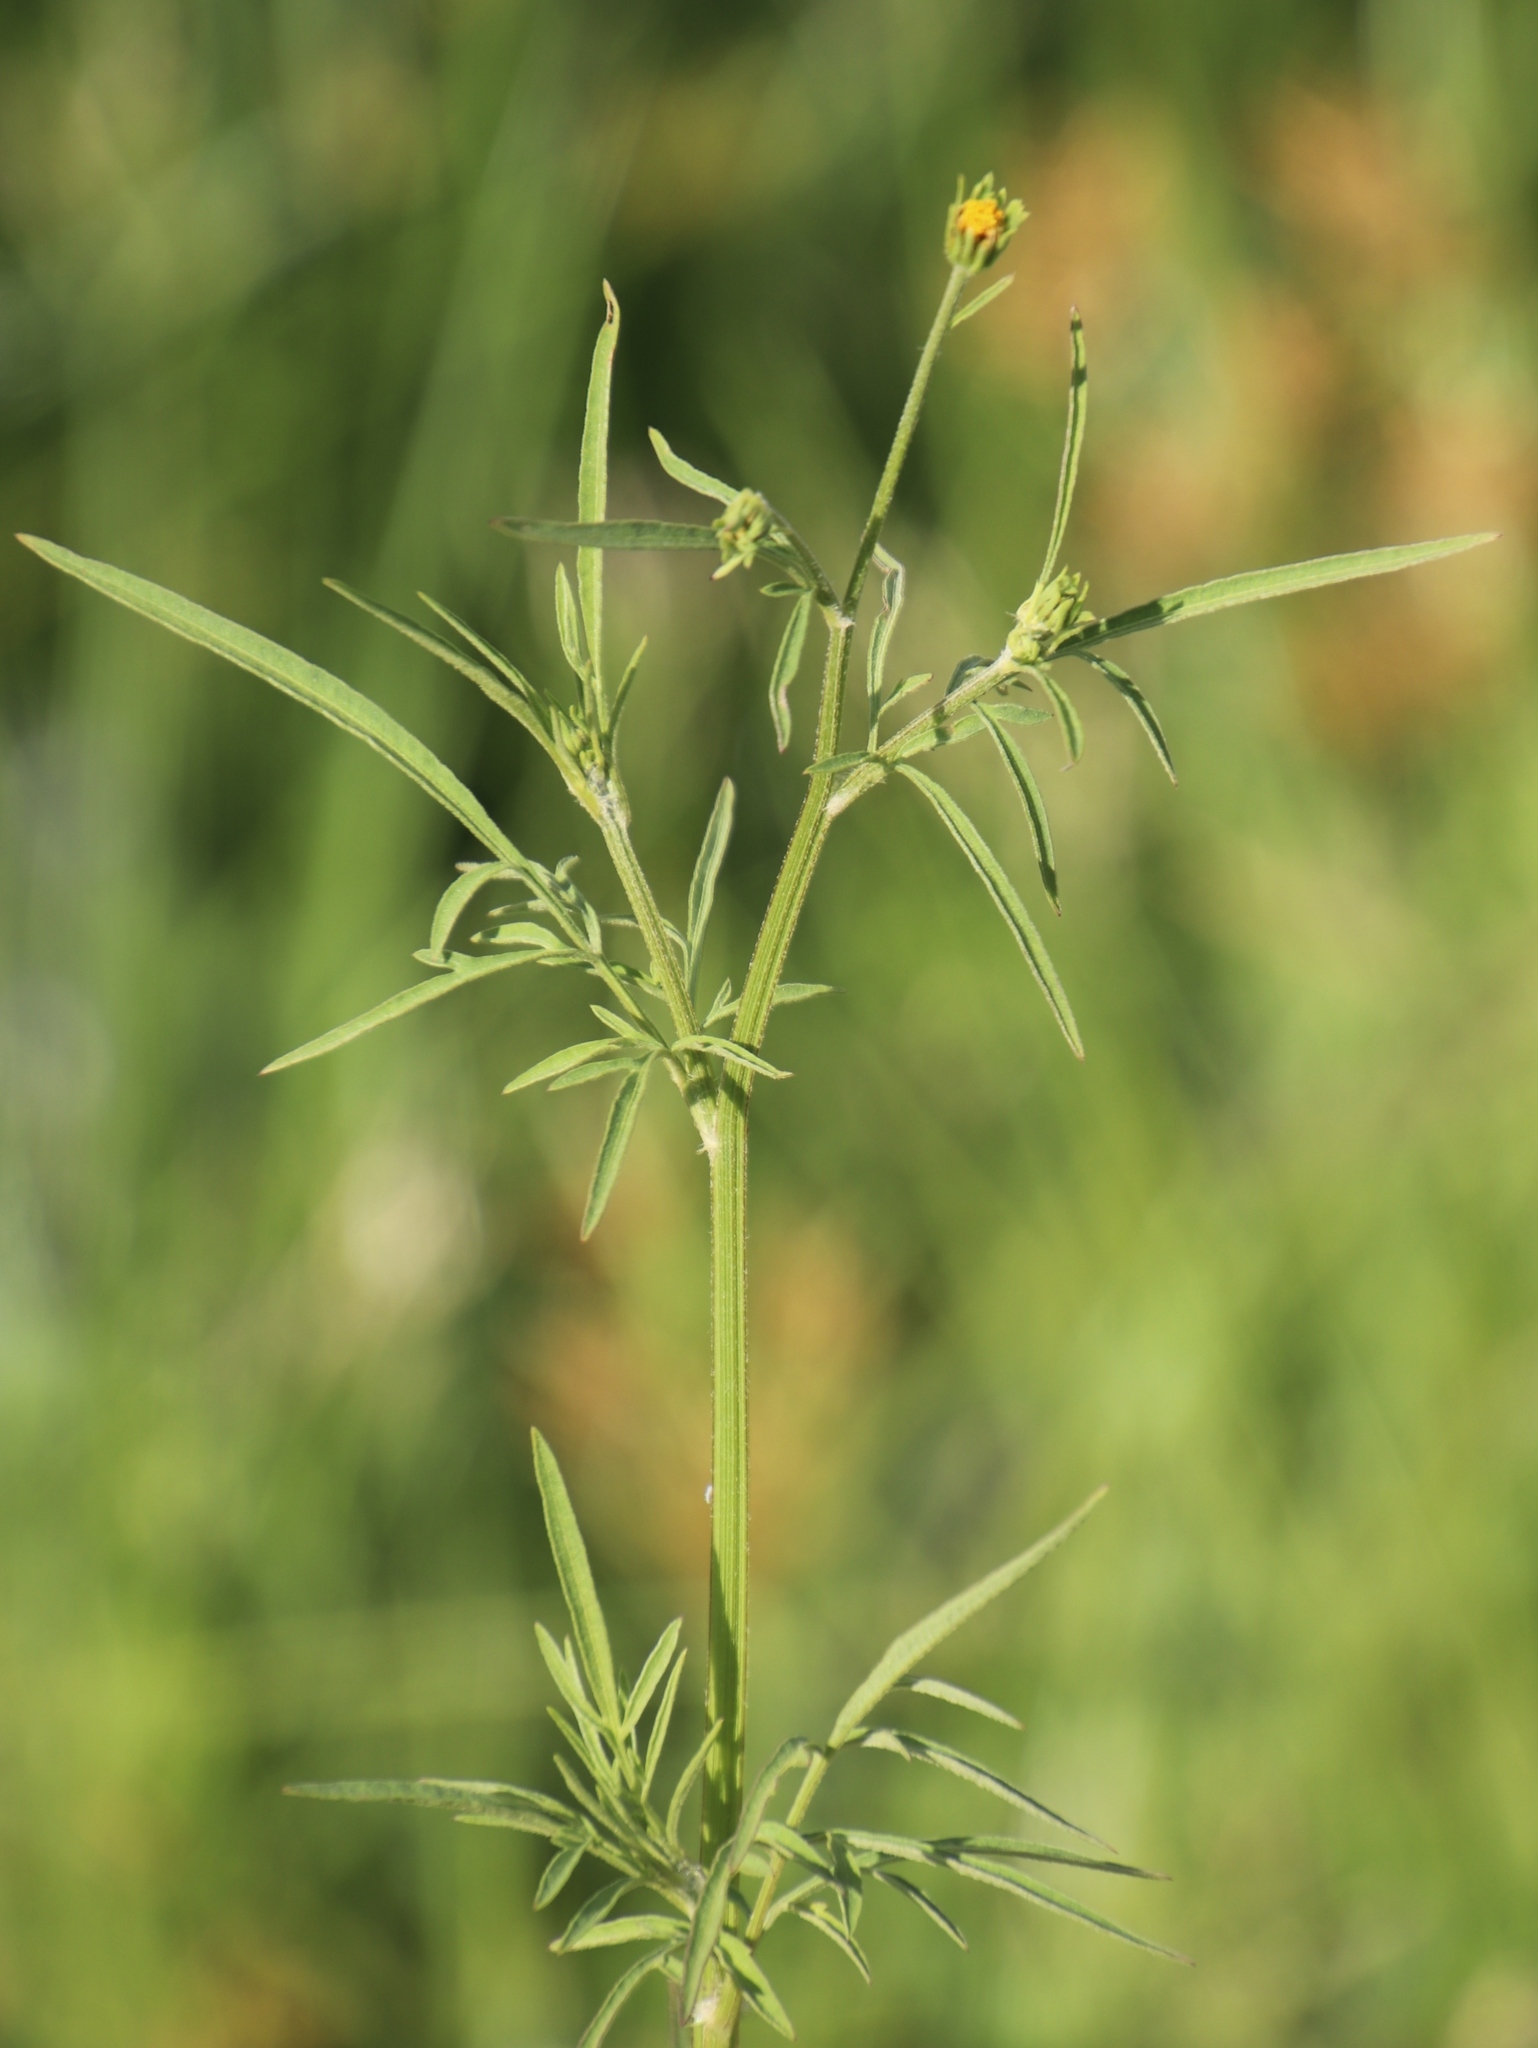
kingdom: Plantae
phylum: Tracheophyta
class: Magnoliopsida
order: Asterales
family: Asteraceae
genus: Tagetes
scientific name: Tagetes minuta
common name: Muster john henry
